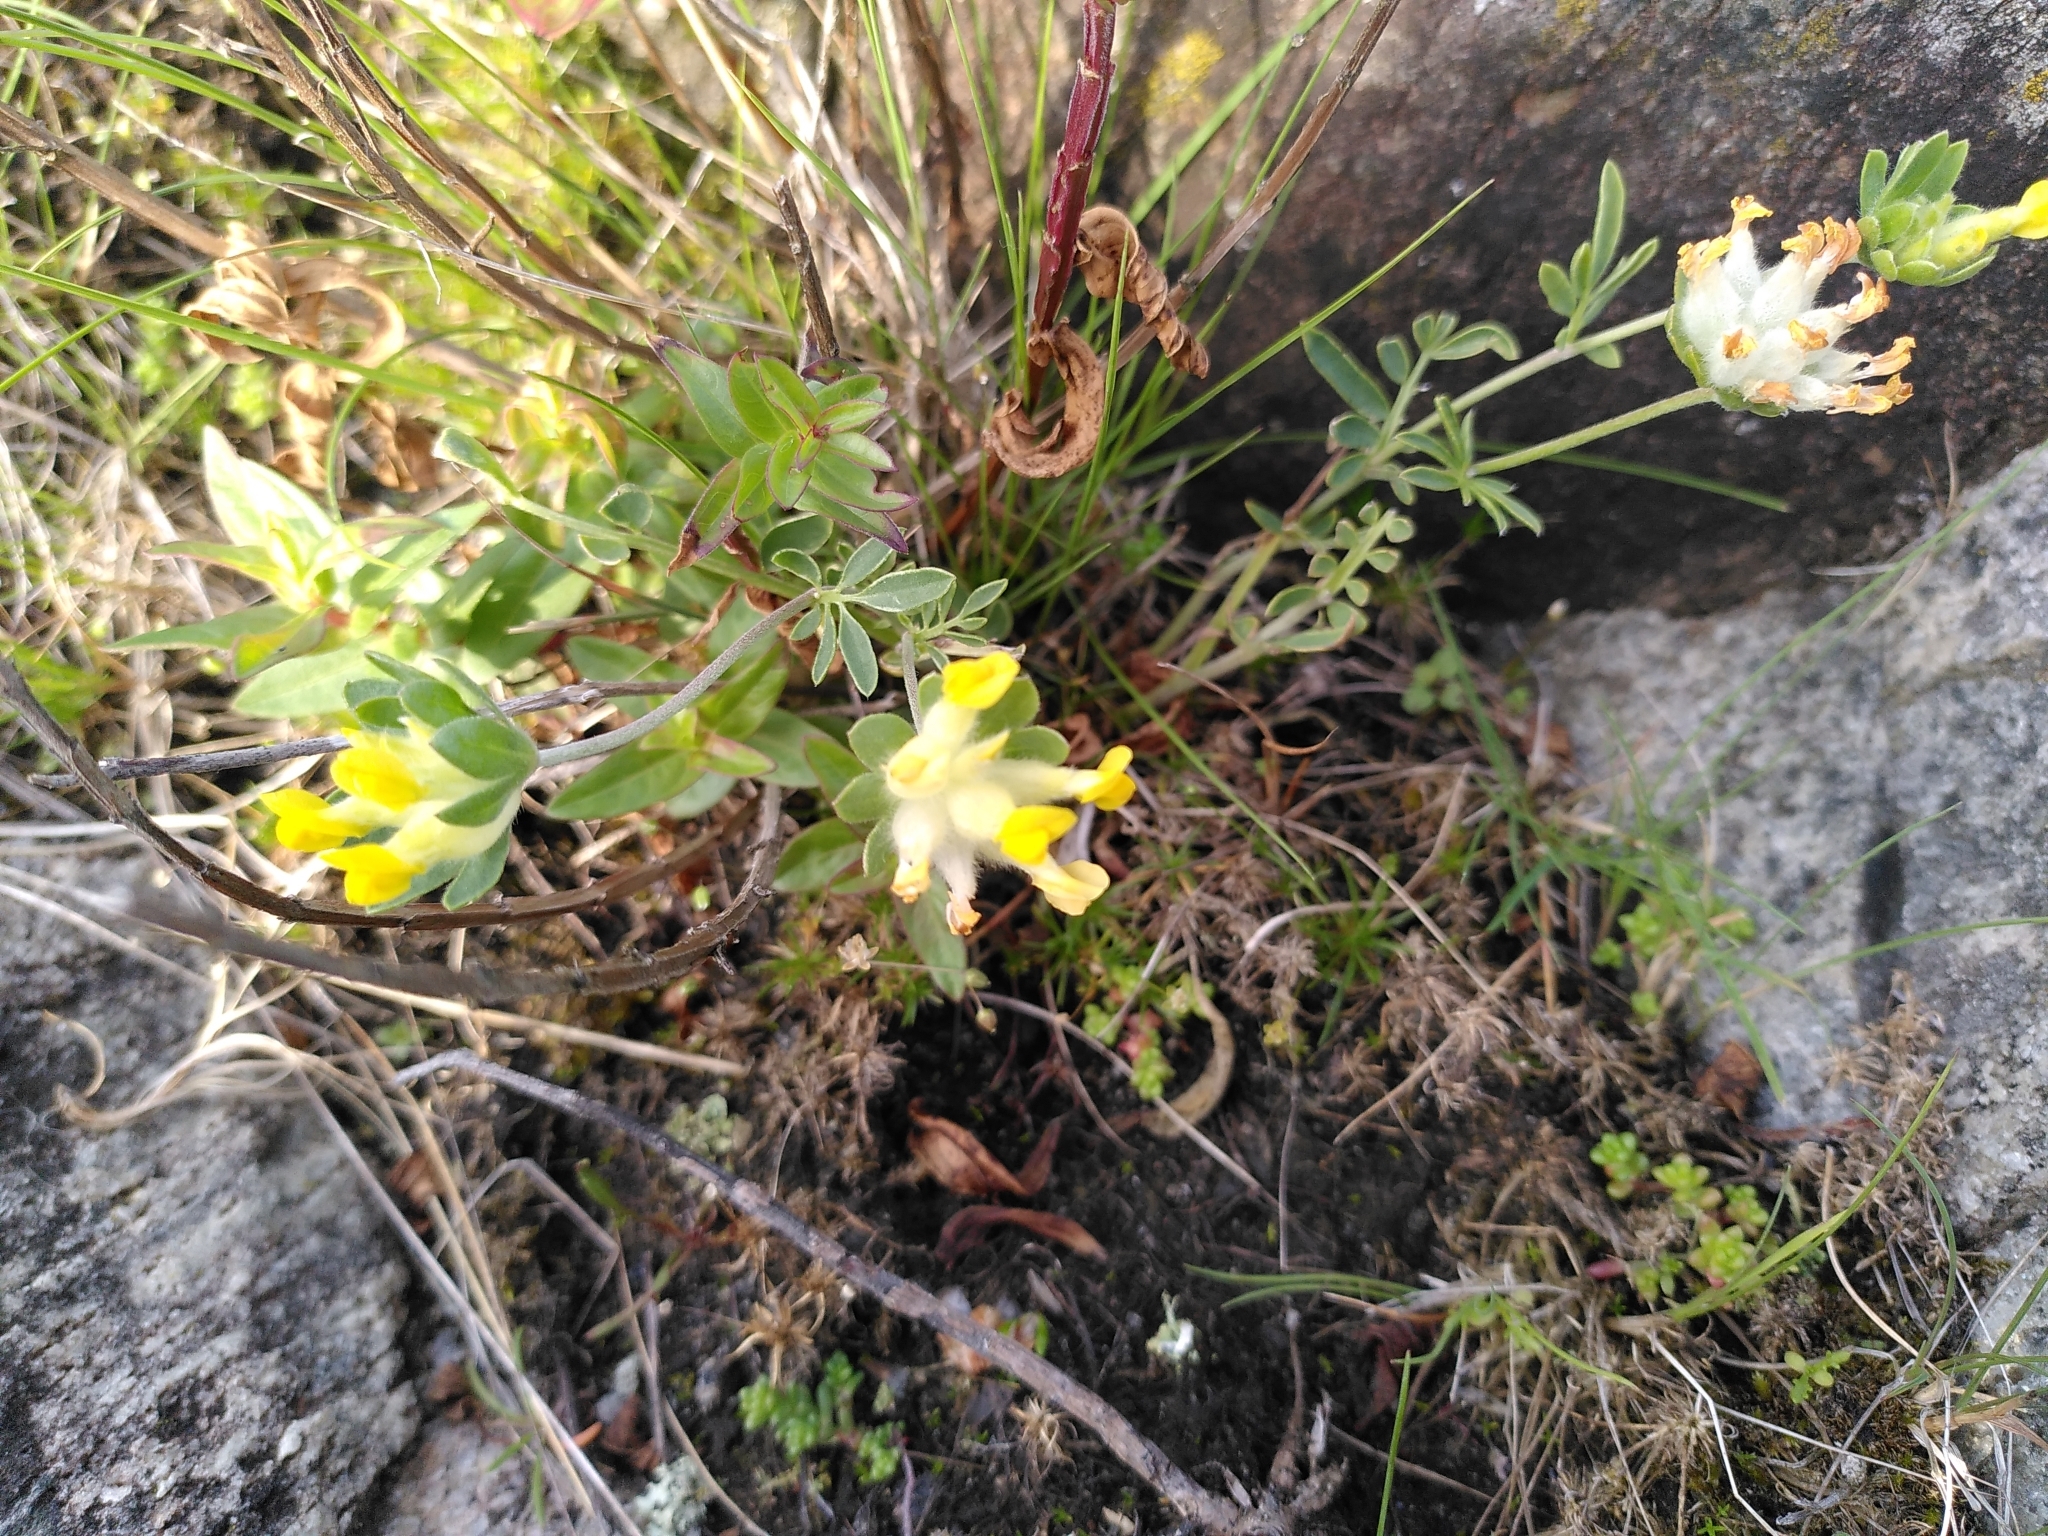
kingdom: Plantae
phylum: Tracheophyta
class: Magnoliopsida
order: Fabales
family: Fabaceae
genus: Anthyllis
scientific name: Anthyllis vulneraria
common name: Kidney vetch
